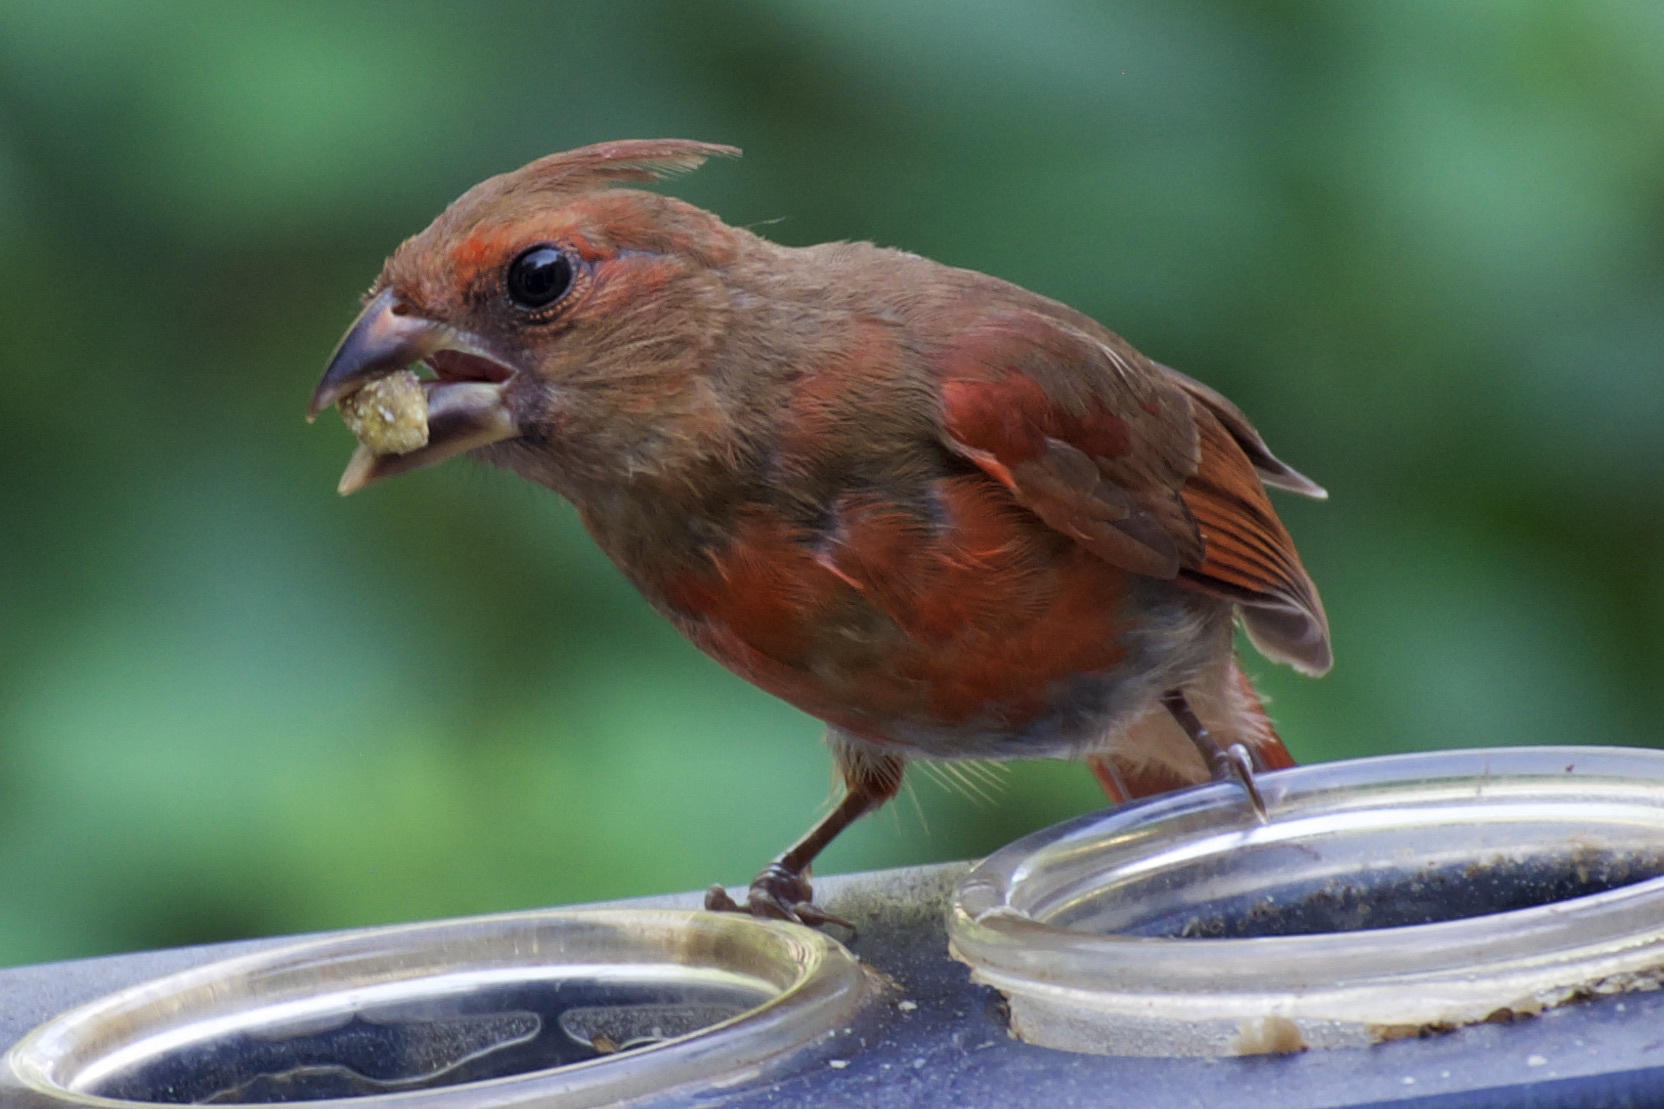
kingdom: Animalia
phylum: Chordata
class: Aves
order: Passeriformes
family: Cardinalidae
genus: Cardinalis
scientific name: Cardinalis cardinalis
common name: Northern cardinal
